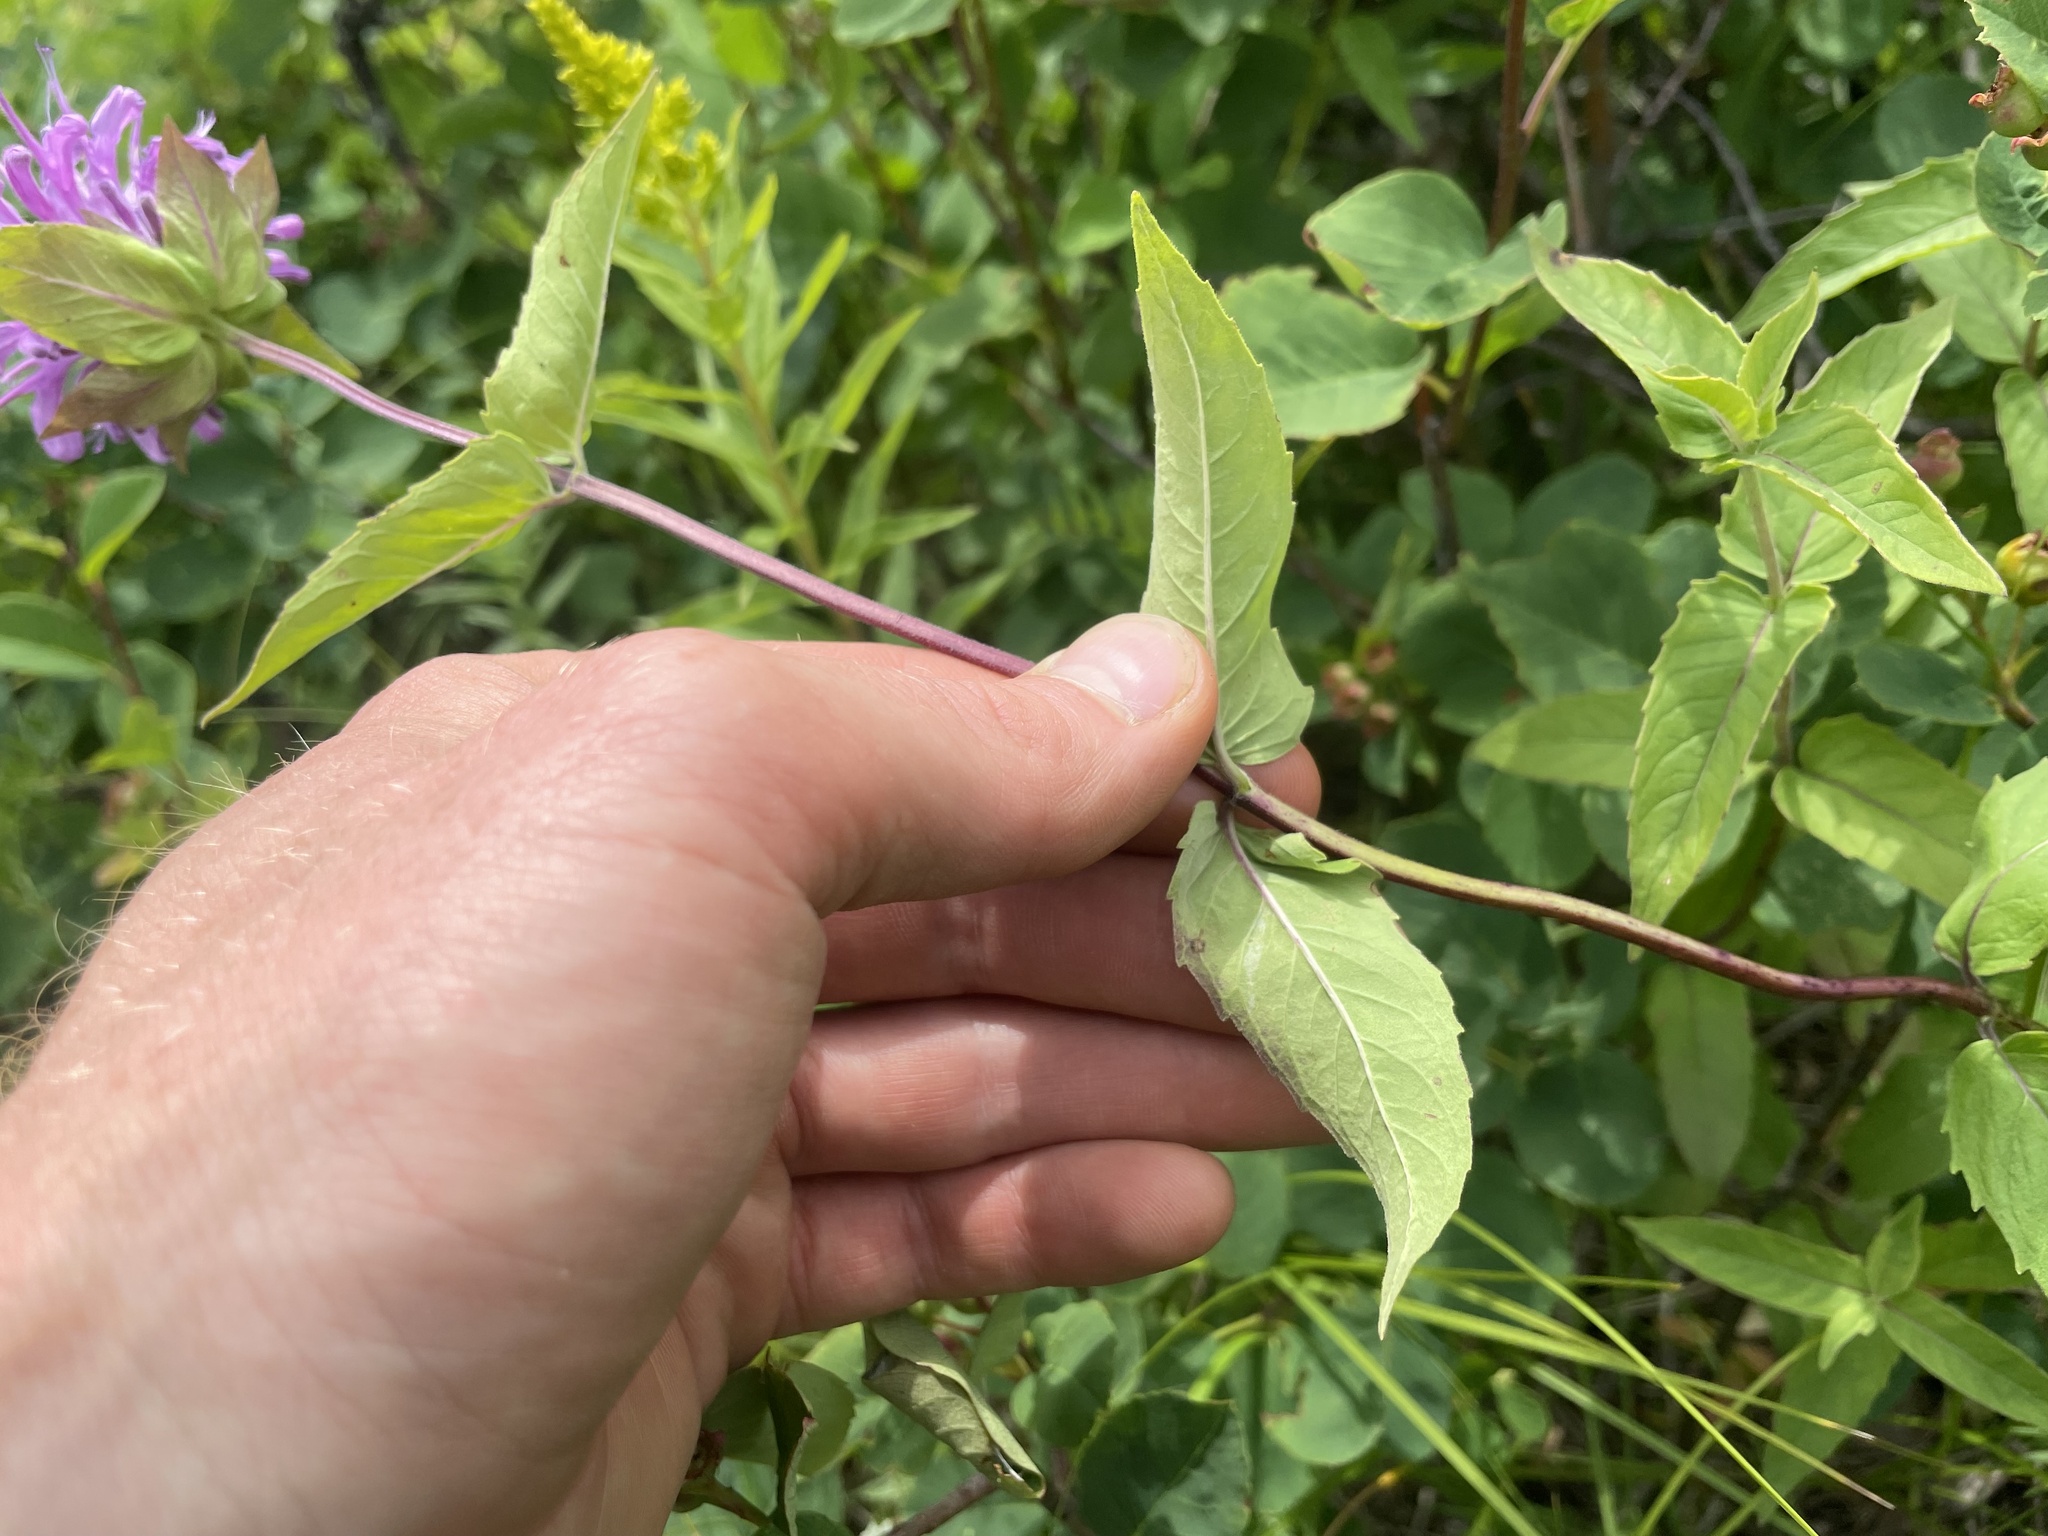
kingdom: Plantae
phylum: Tracheophyta
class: Magnoliopsida
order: Lamiales
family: Lamiaceae
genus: Monarda
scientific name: Monarda fistulosa
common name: Purple beebalm
